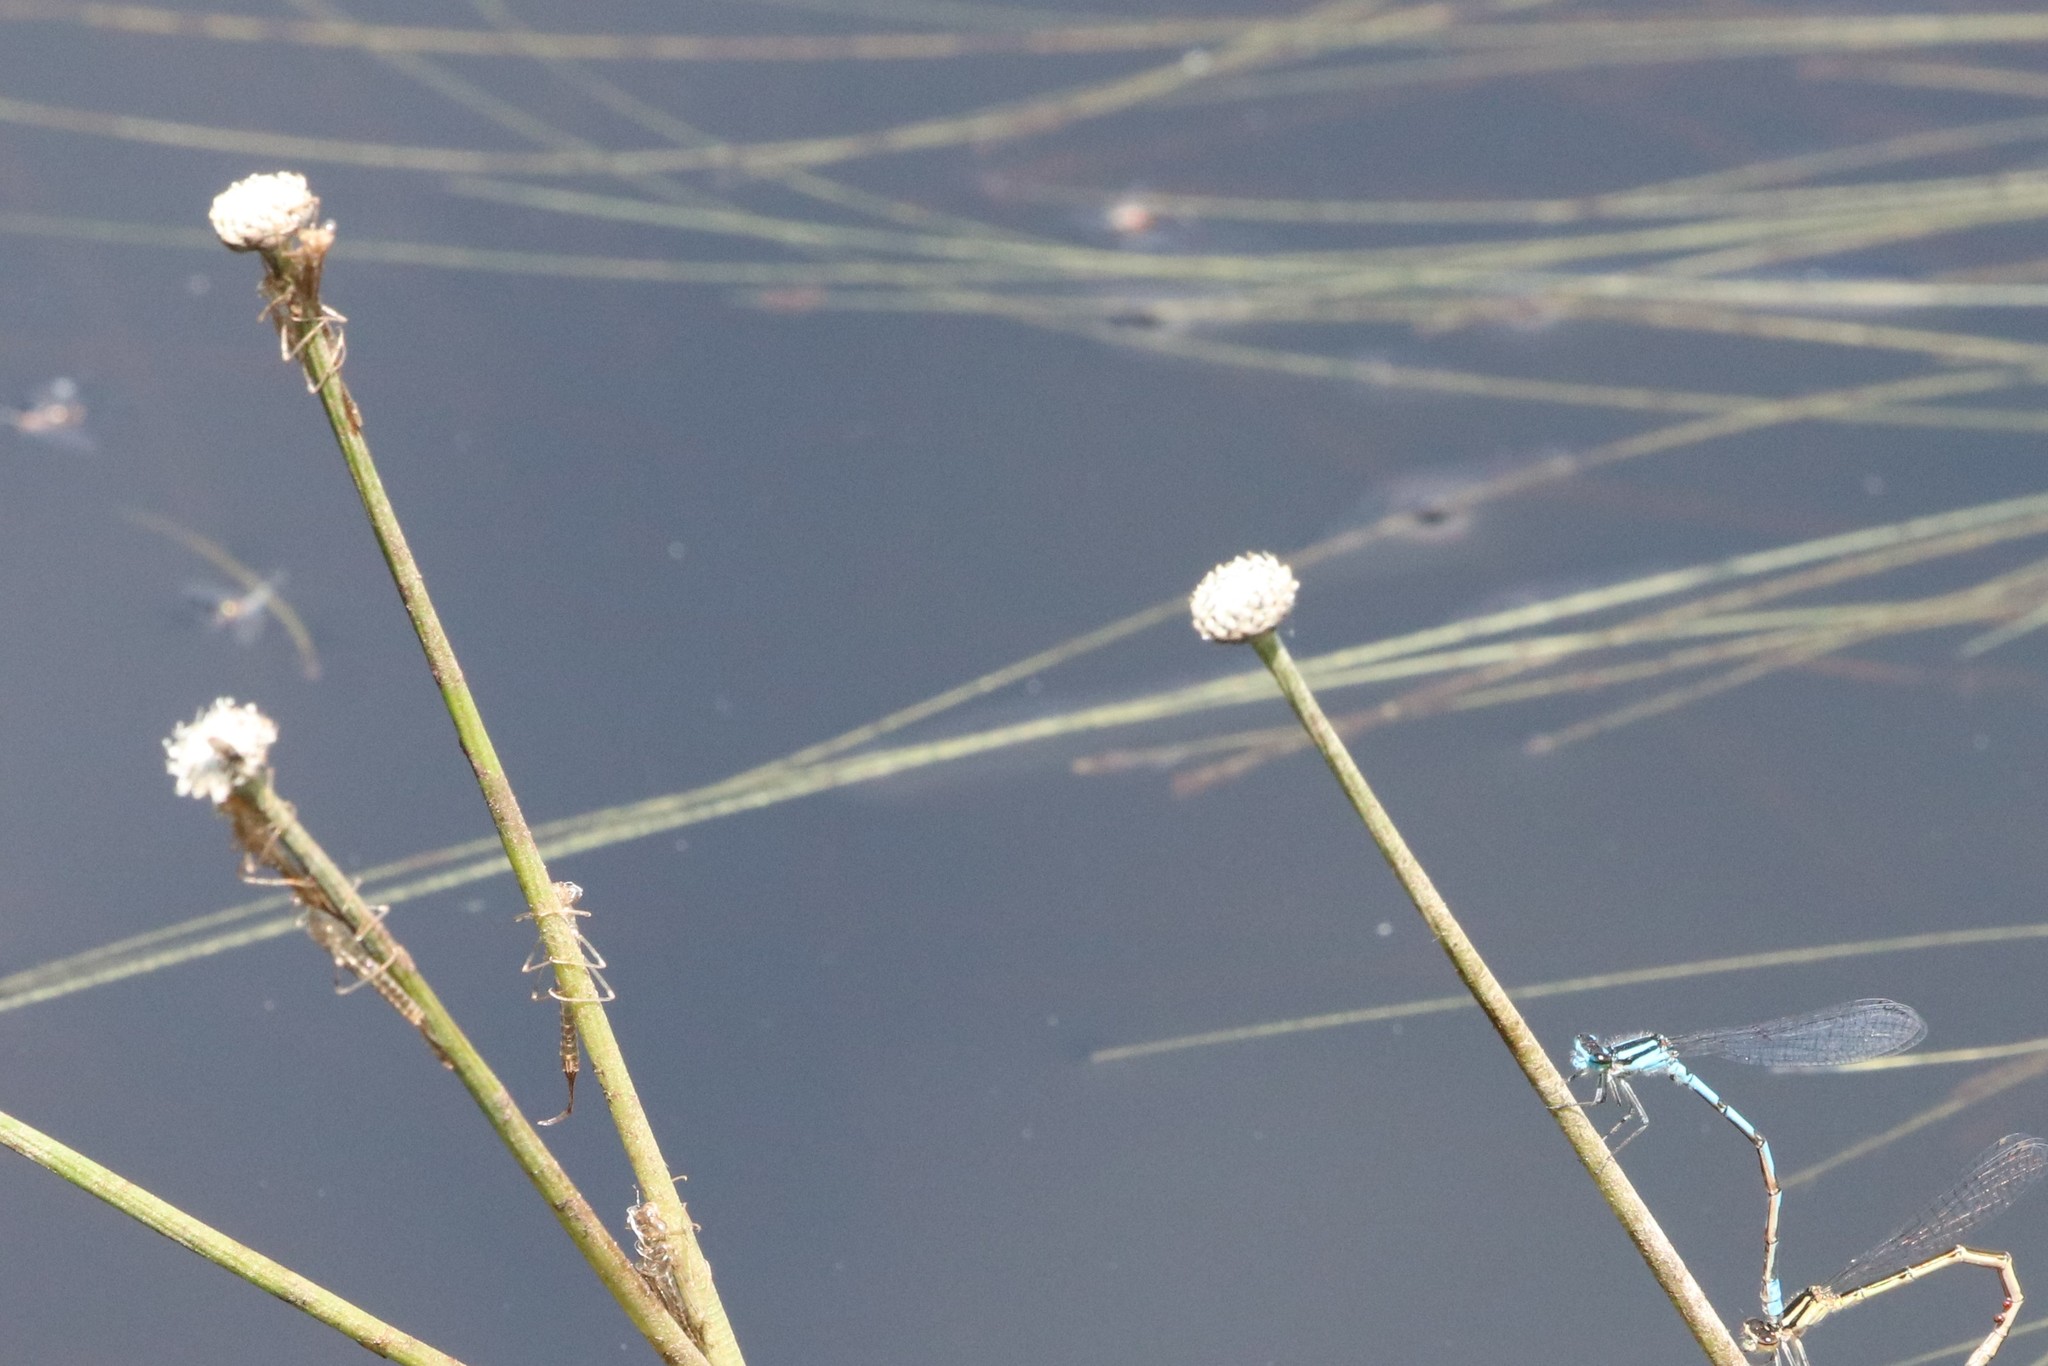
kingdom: Plantae
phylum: Tracheophyta
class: Liliopsida
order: Poales
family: Eriocaulaceae
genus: Eriocaulon
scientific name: Eriocaulon aquaticum
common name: Pipewort
